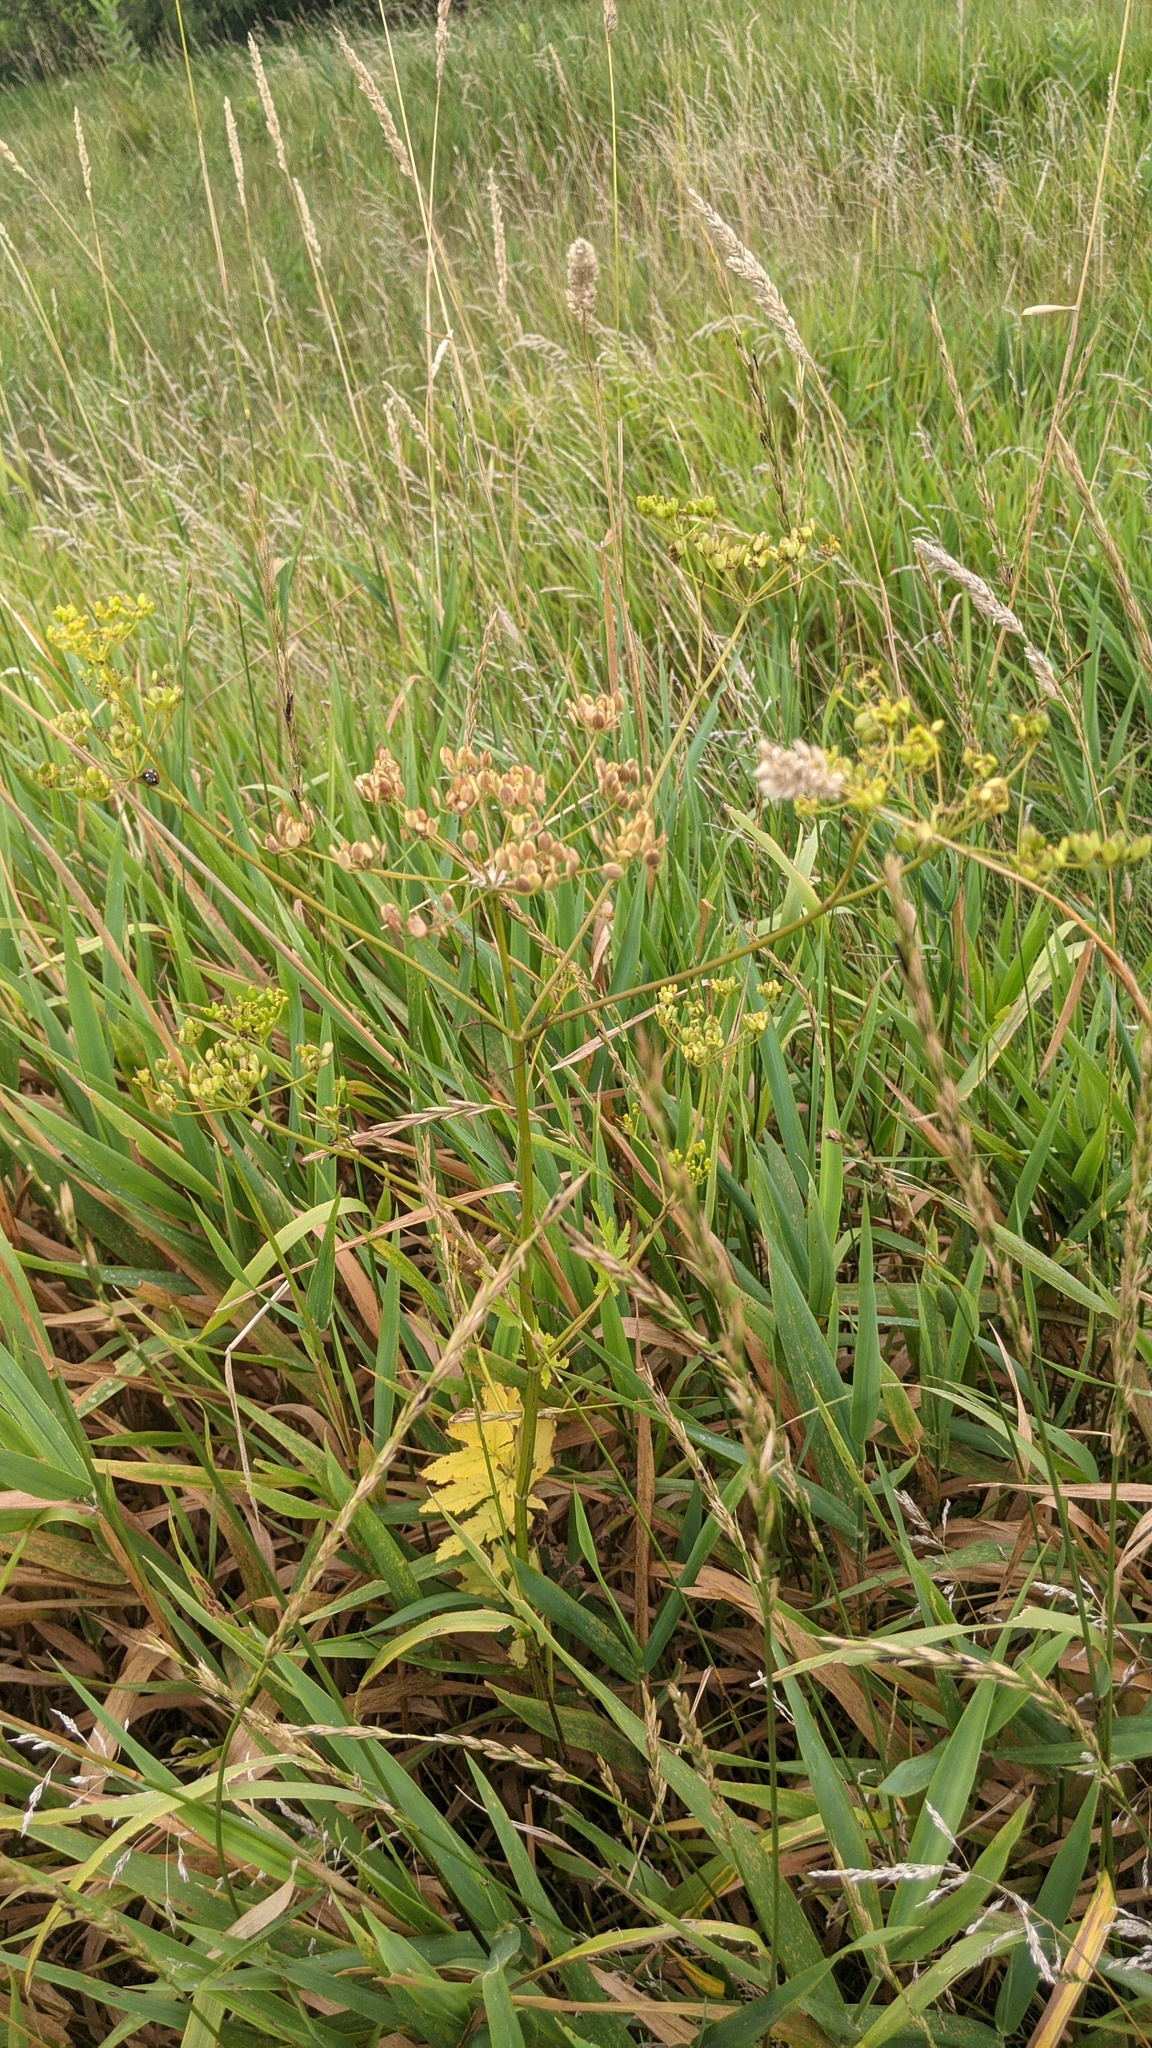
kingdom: Plantae
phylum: Tracheophyta
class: Magnoliopsida
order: Apiales
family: Apiaceae
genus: Pastinaca
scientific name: Pastinaca sativa
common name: Wild parsnip
